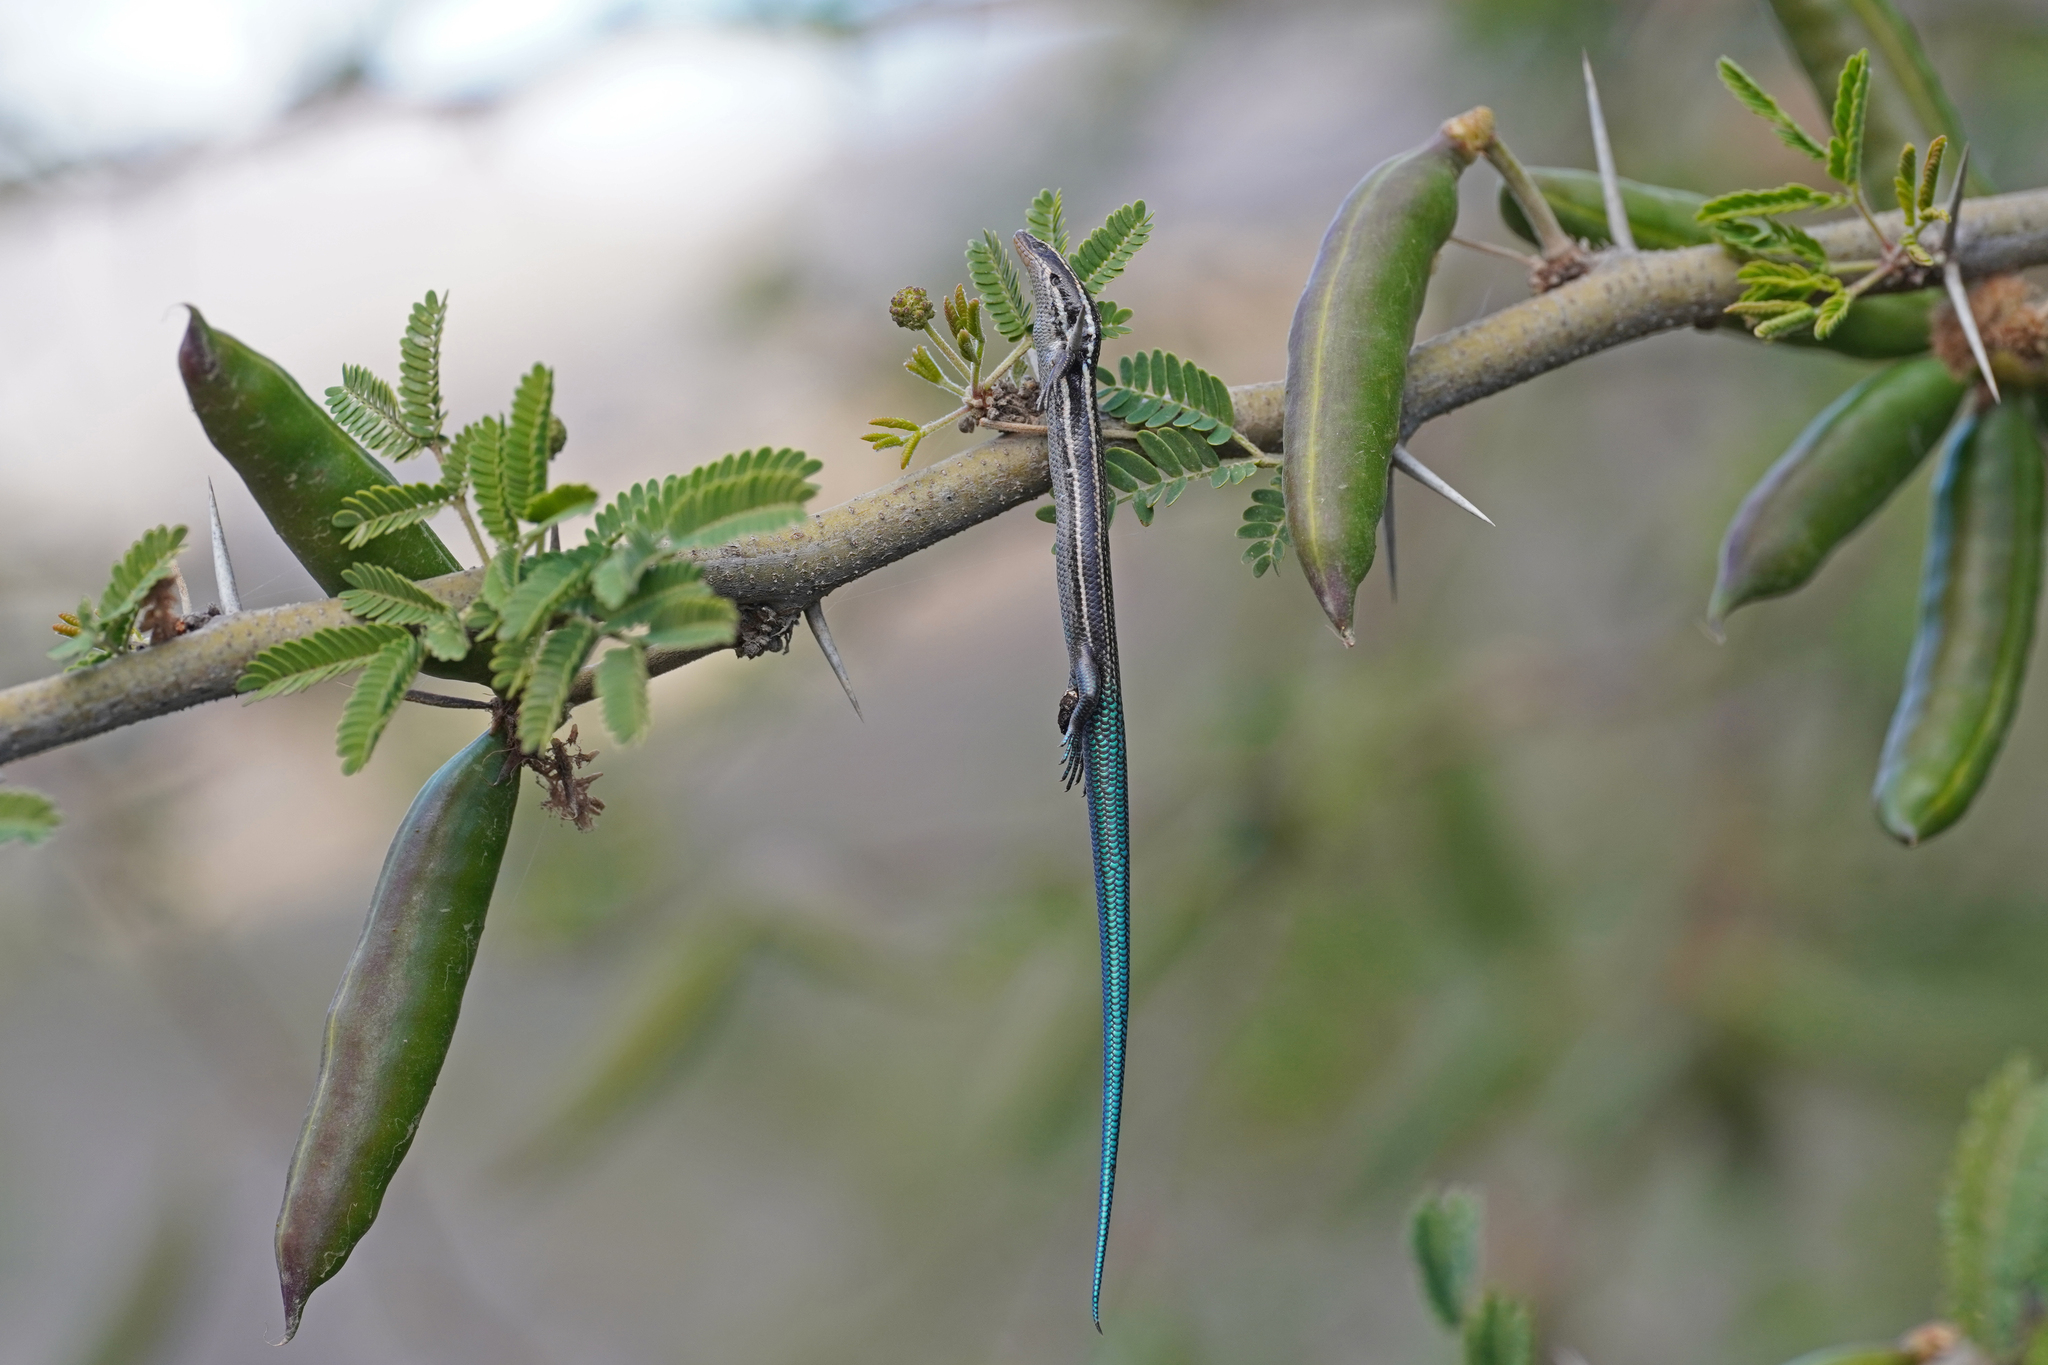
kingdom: Animalia
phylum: Chordata
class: Squamata
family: Scincidae
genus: Chalcides
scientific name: Chalcides sexlineatus
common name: Gran canaria skink
